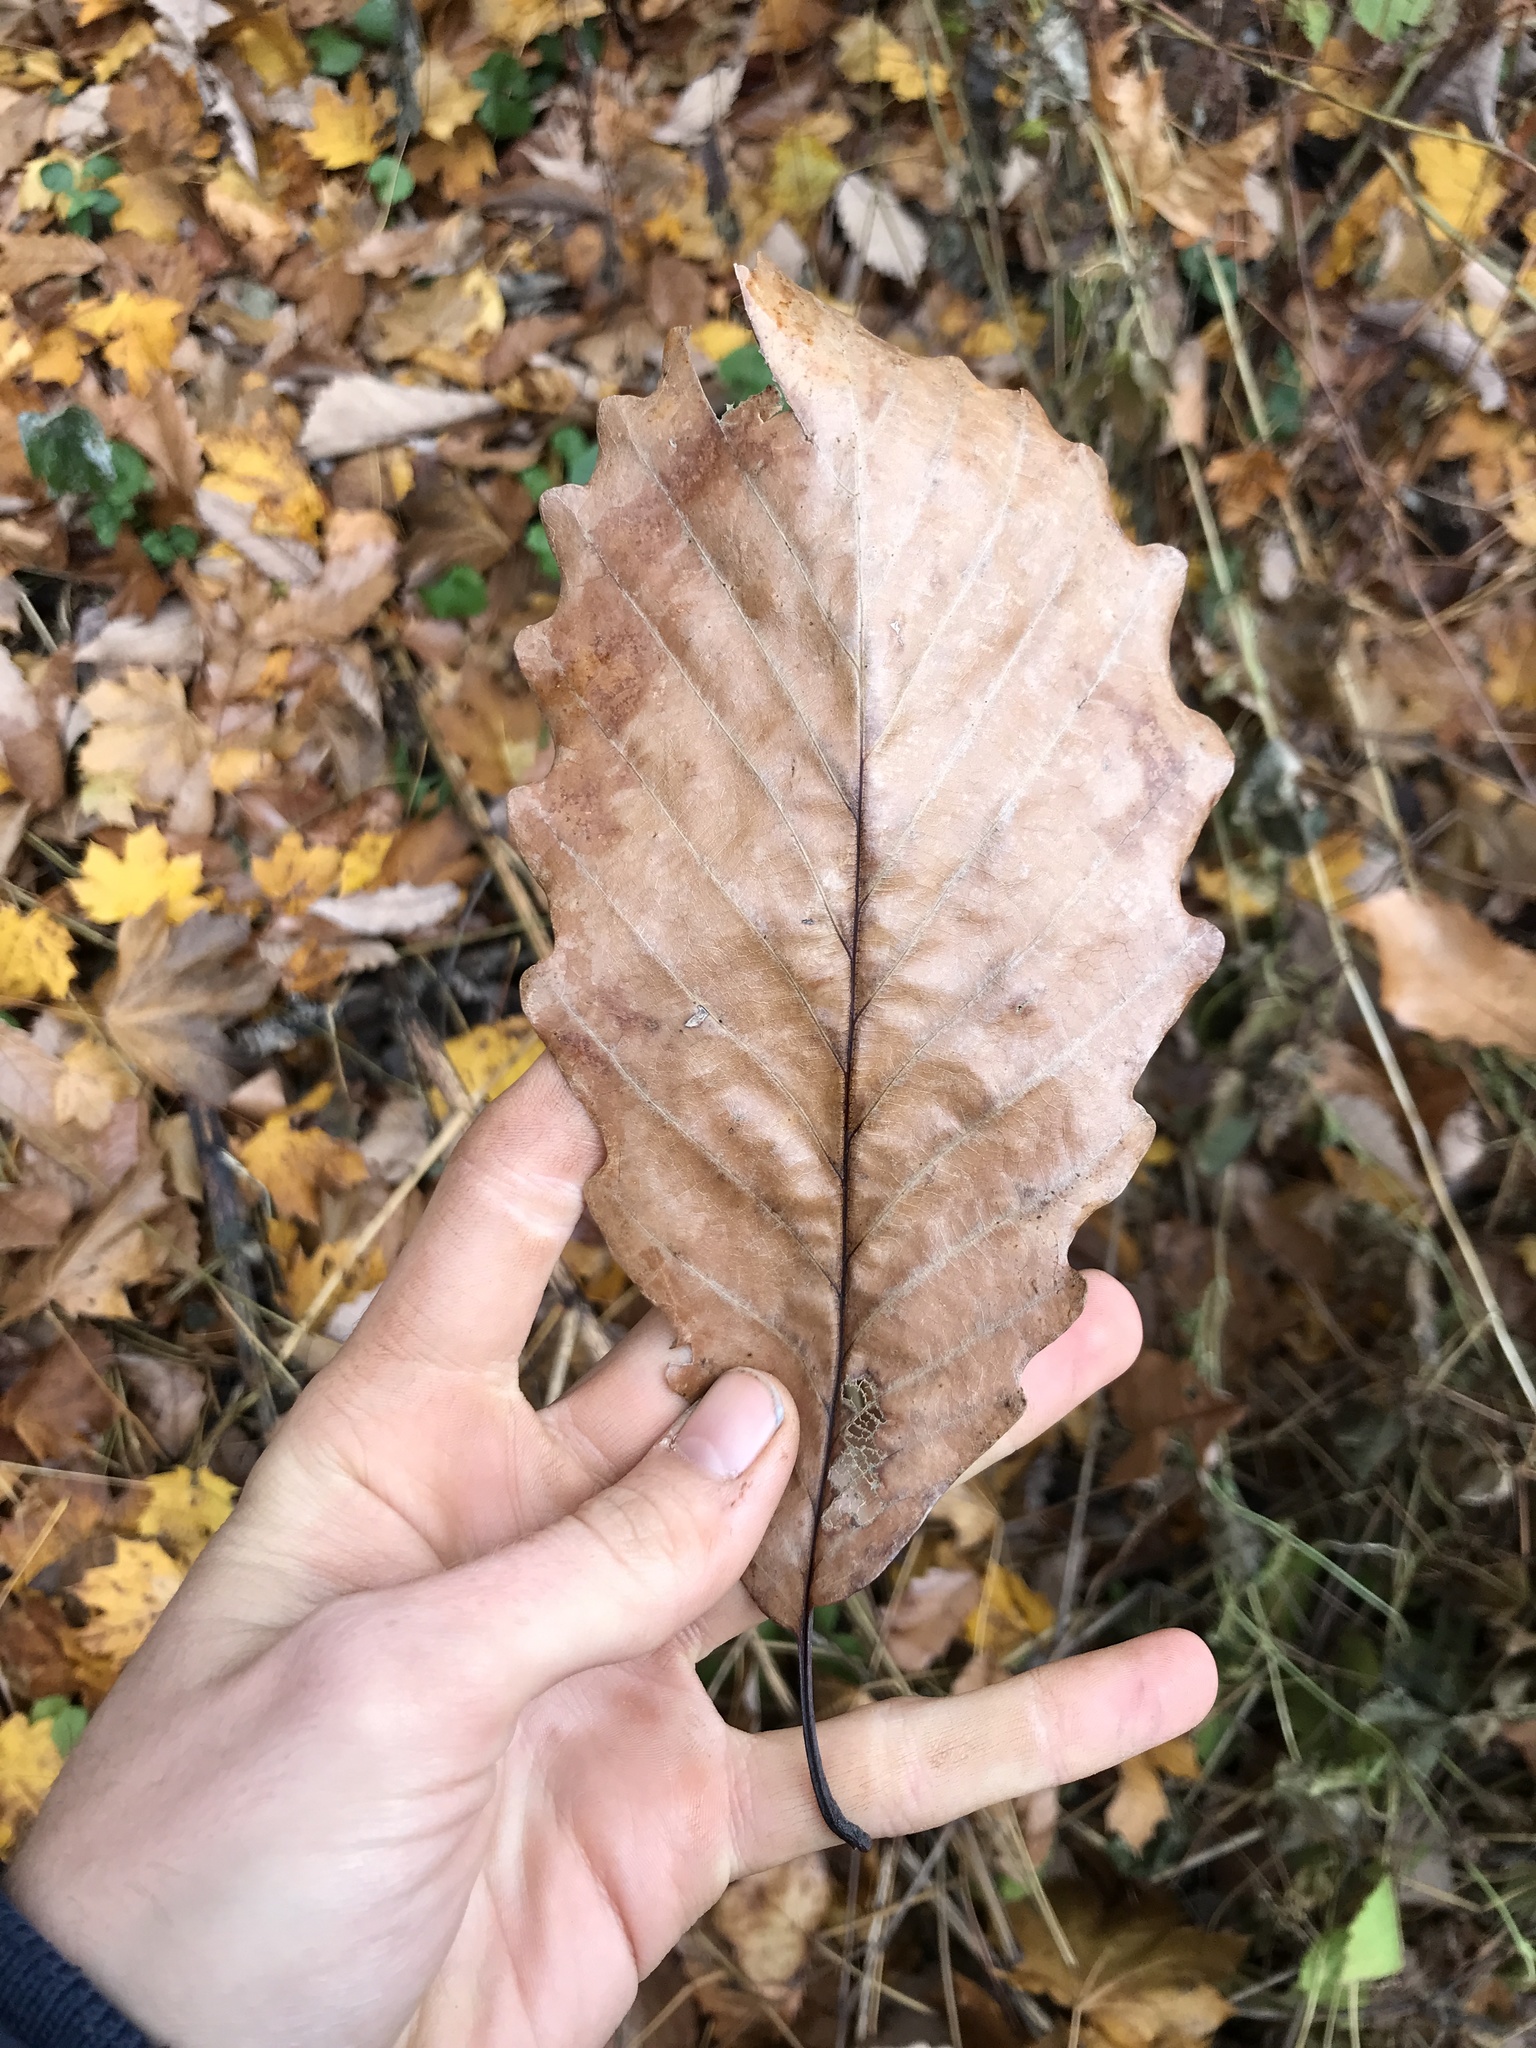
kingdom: Plantae
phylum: Tracheophyta
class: Magnoliopsida
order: Fagales
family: Fagaceae
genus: Quercus
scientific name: Quercus montana
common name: Chestnut oak
